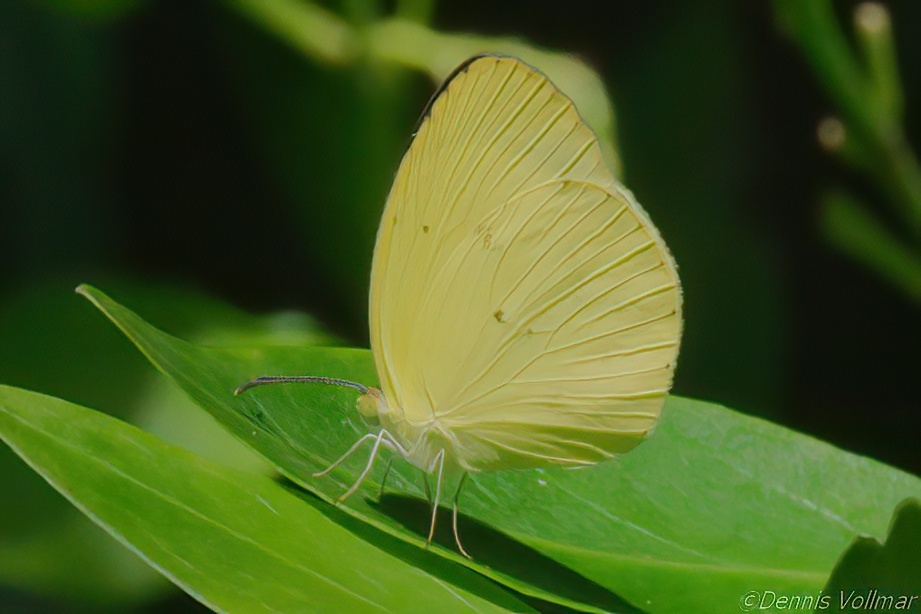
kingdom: Animalia
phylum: Arthropoda
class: Insecta
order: Lepidoptera
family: Pieridae
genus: Pyrisitia
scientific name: Pyrisitia nise
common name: Mimosa yellow
